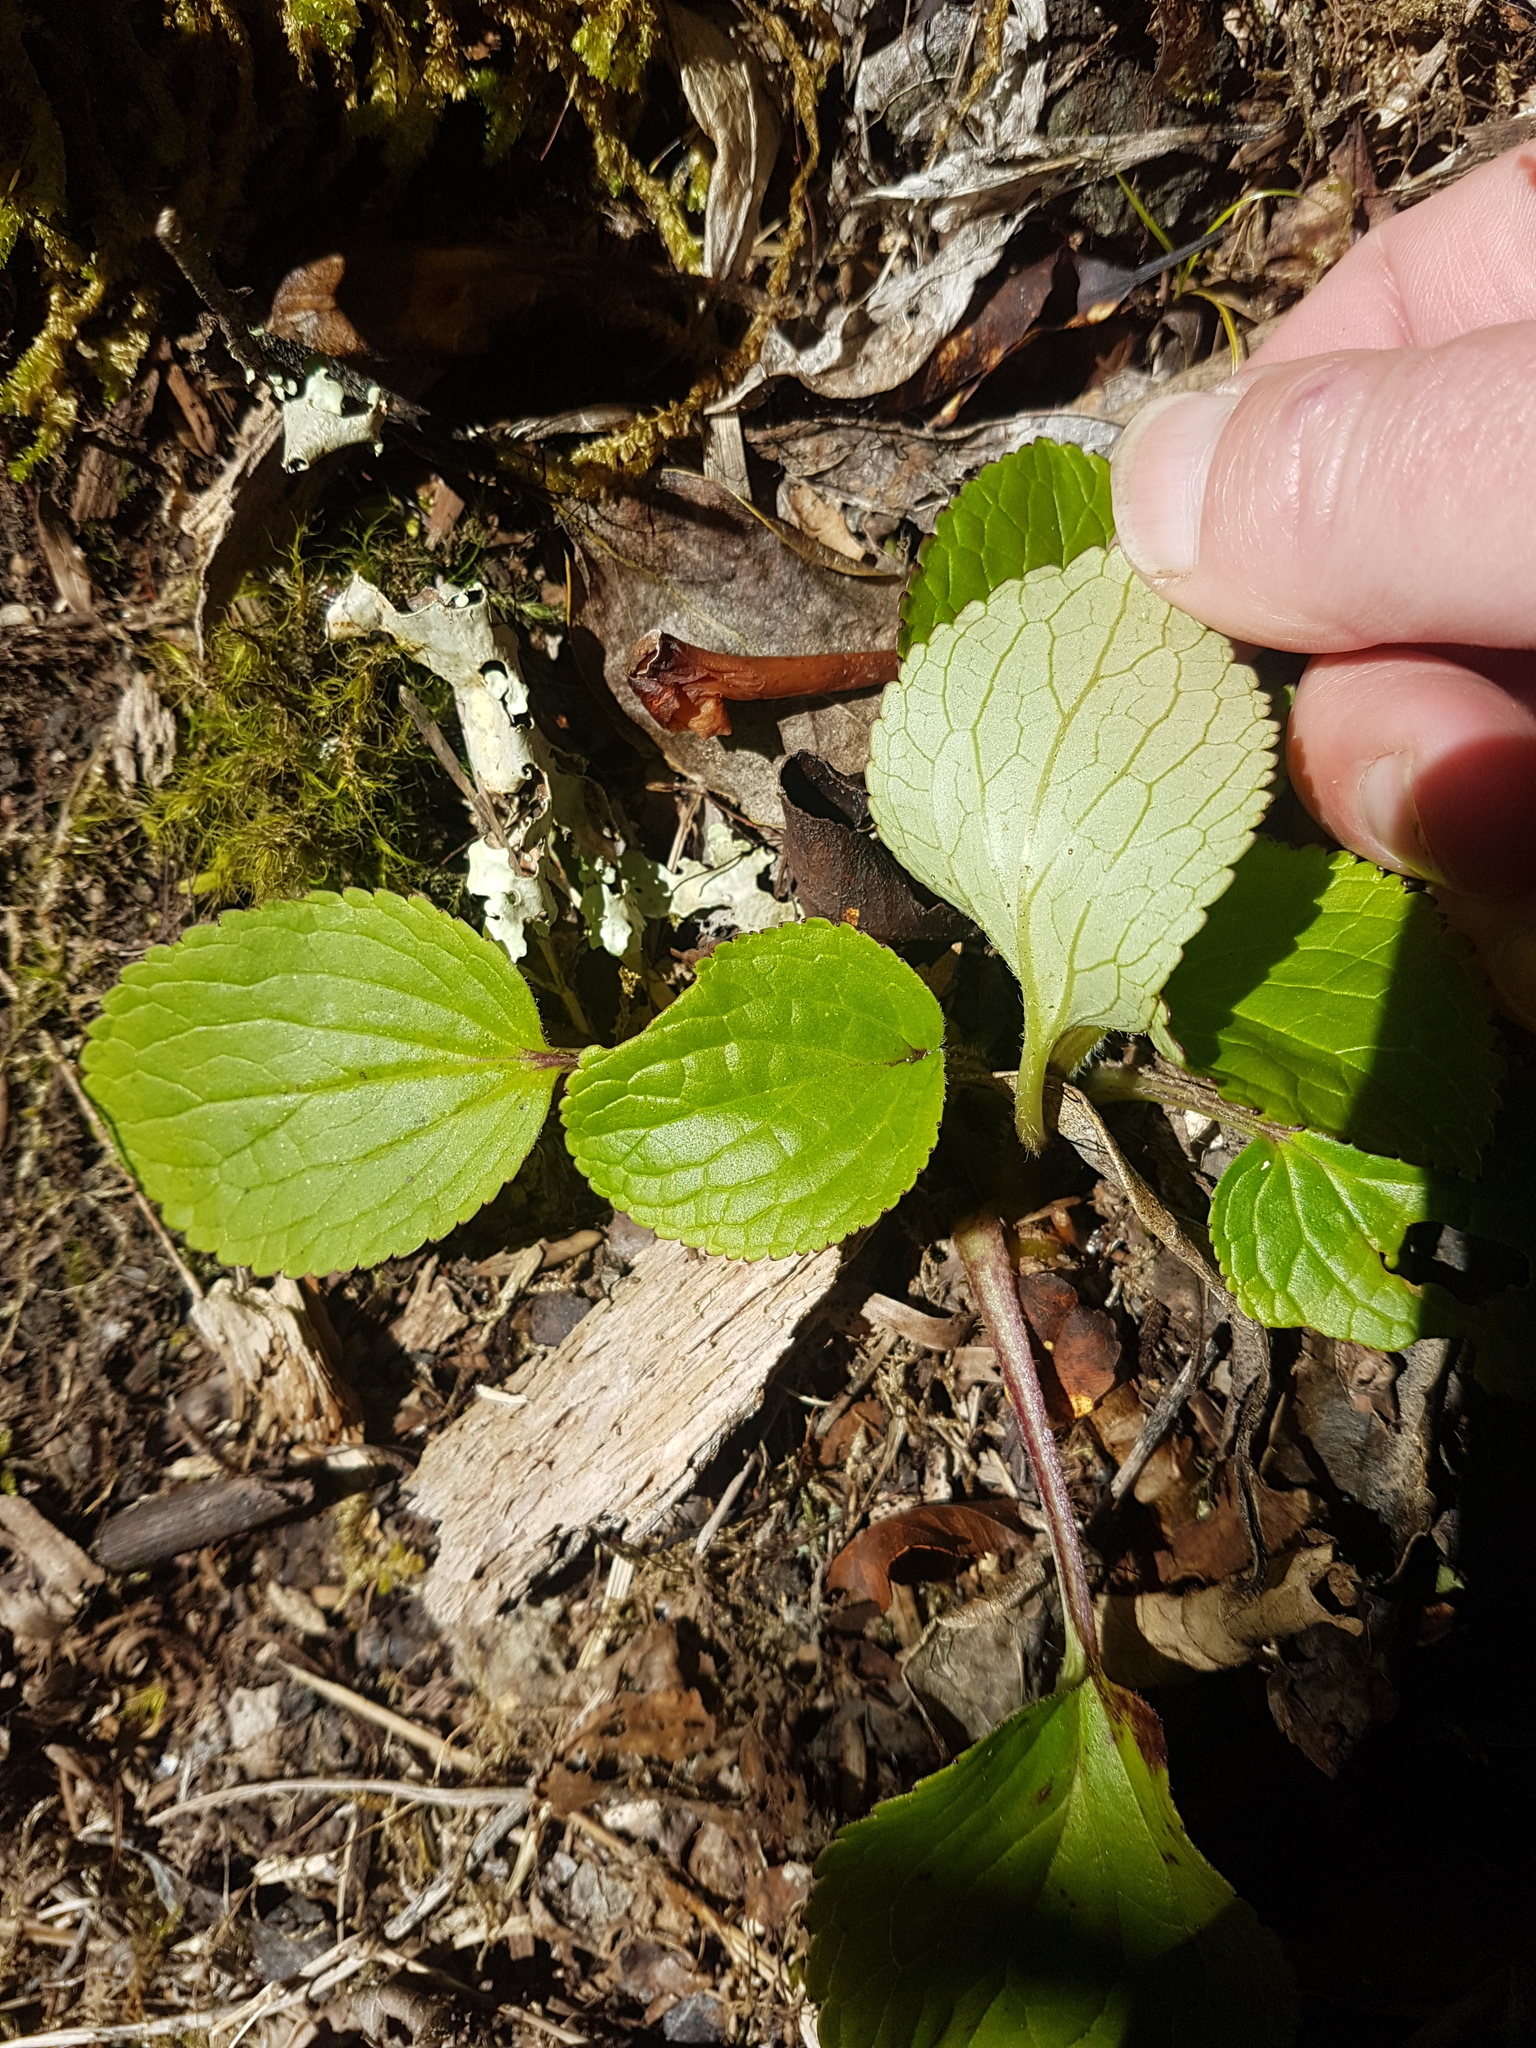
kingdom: Plantae
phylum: Tracheophyta
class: Magnoliopsida
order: Lamiales
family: Plantaginaceae
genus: Ourisia
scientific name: Ourisia macrophylla
